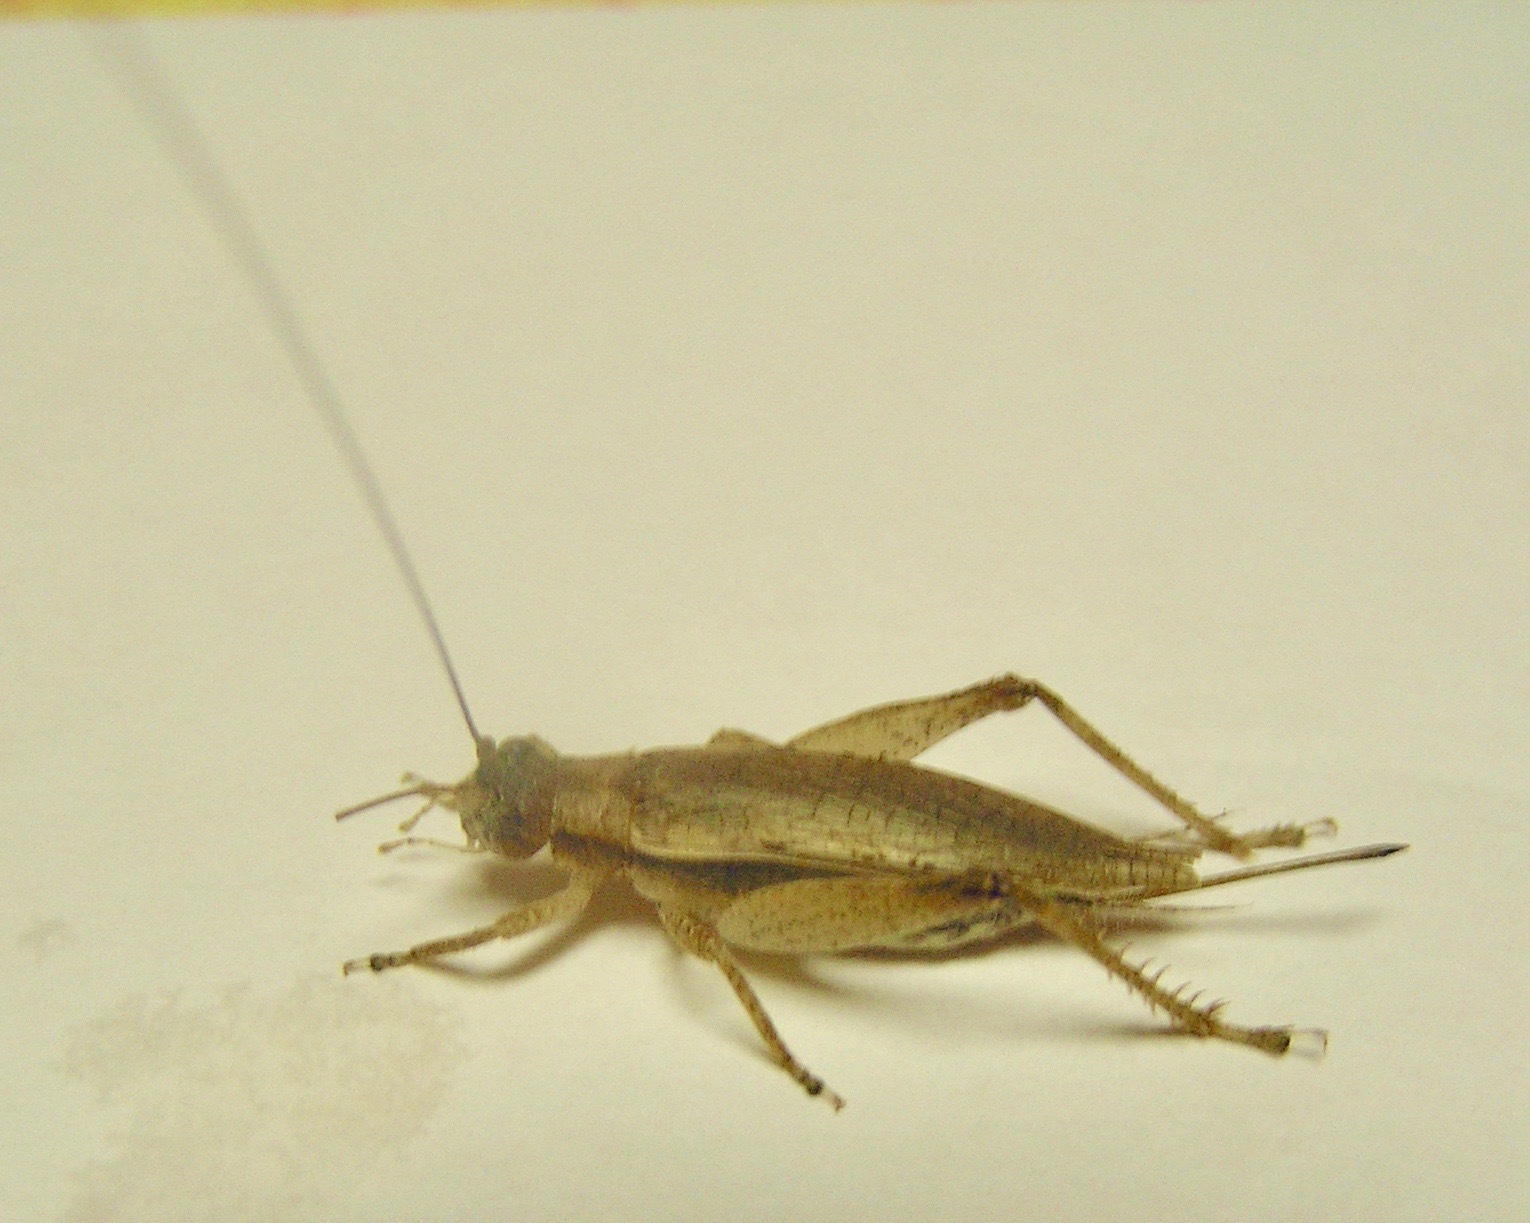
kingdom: Animalia
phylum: Arthropoda
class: Insecta
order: Orthoptera
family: Gryllidae
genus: Hapithus
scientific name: Hapithus saltator
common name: Jumping bush cricket
